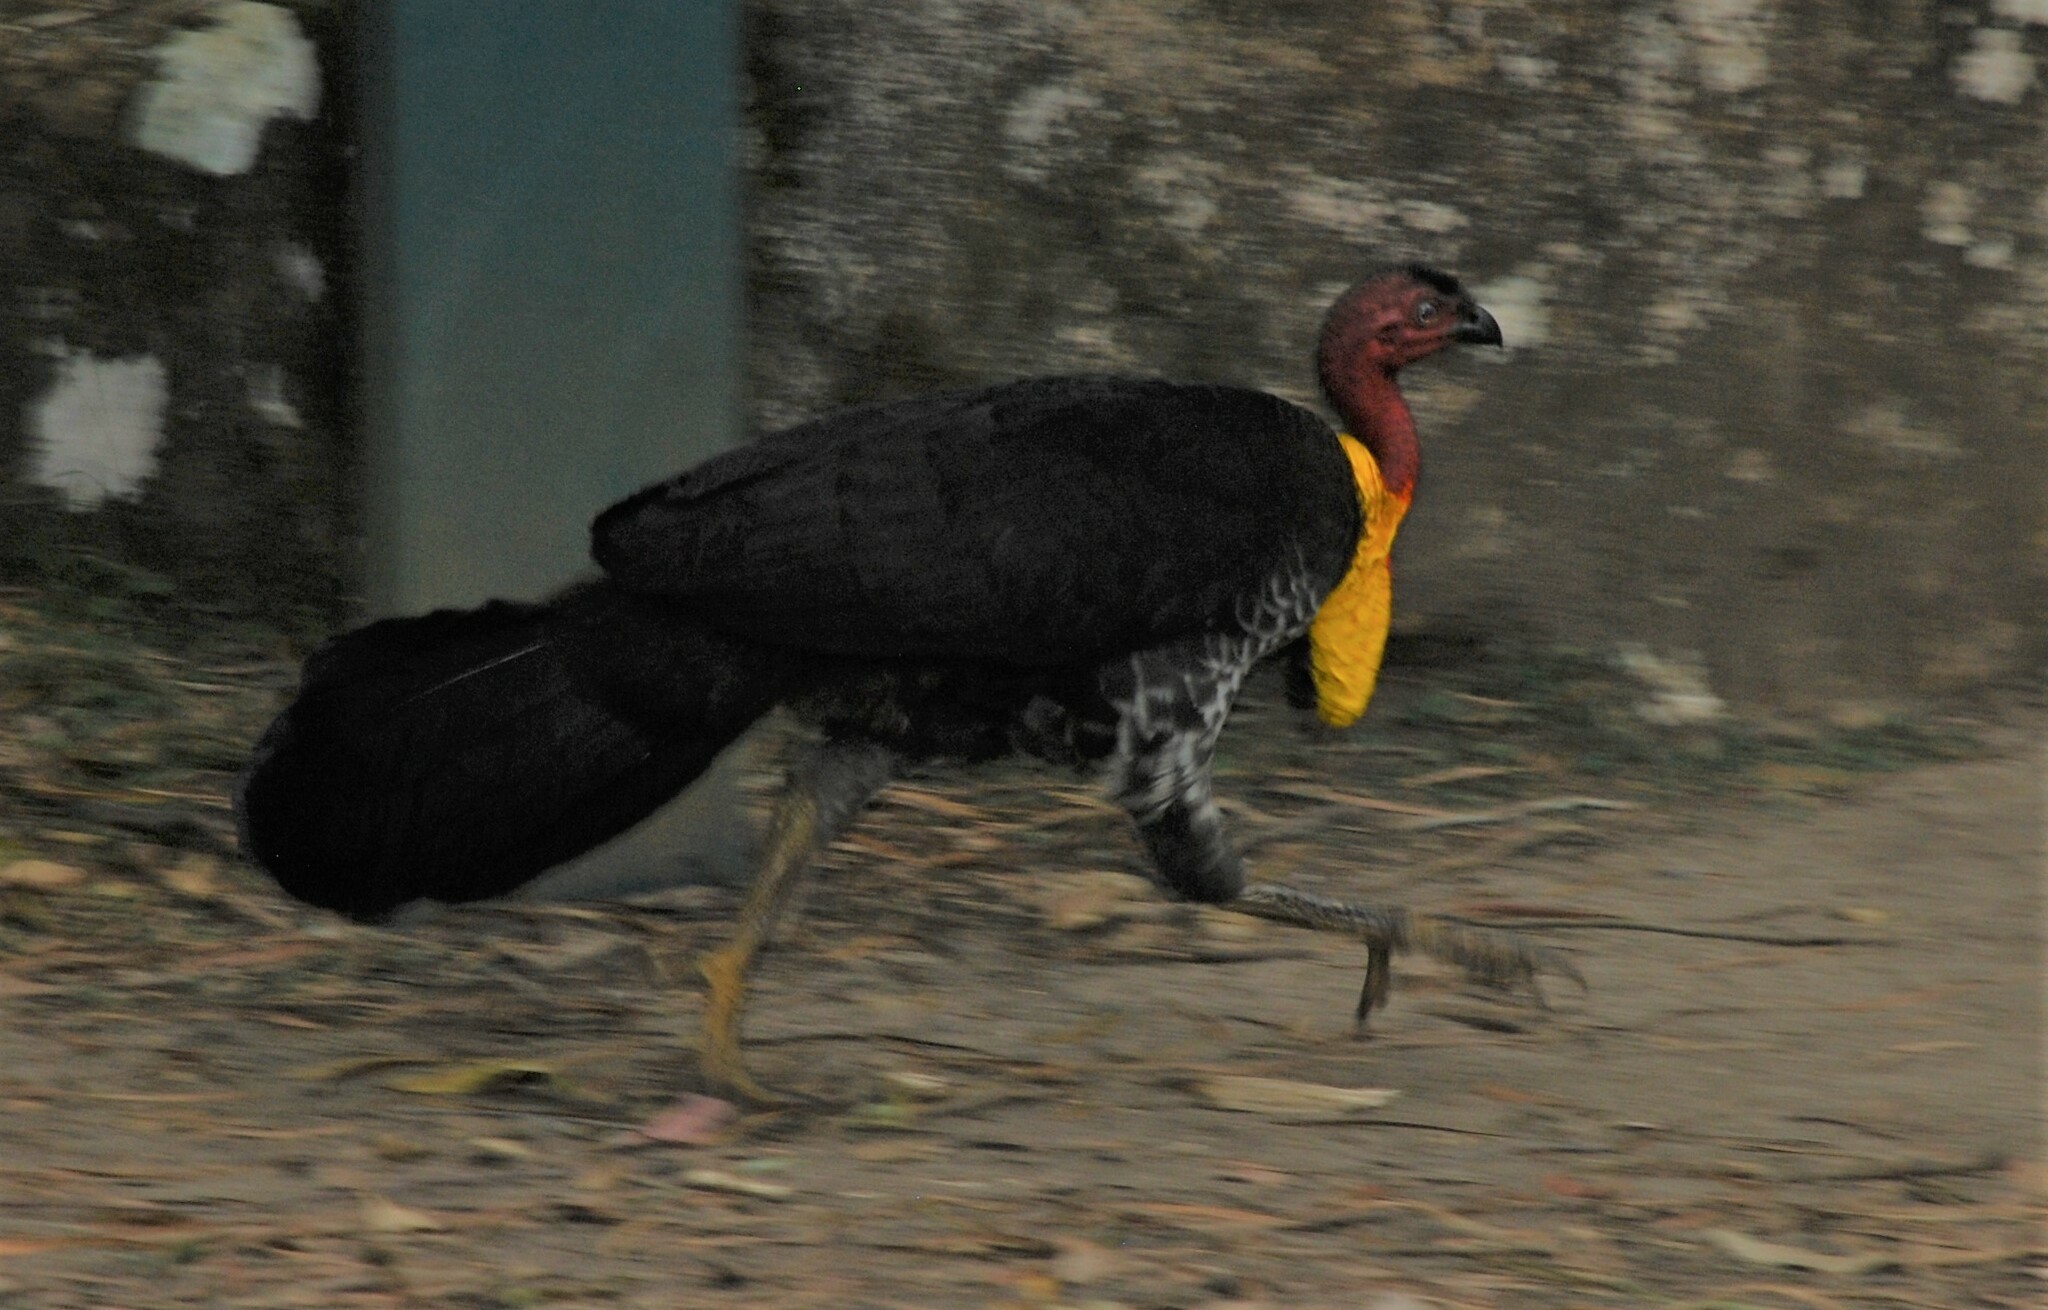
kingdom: Animalia
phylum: Chordata
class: Aves
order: Galliformes
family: Megapodiidae
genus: Alectura
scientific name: Alectura lathami
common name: Australian brushturkey
